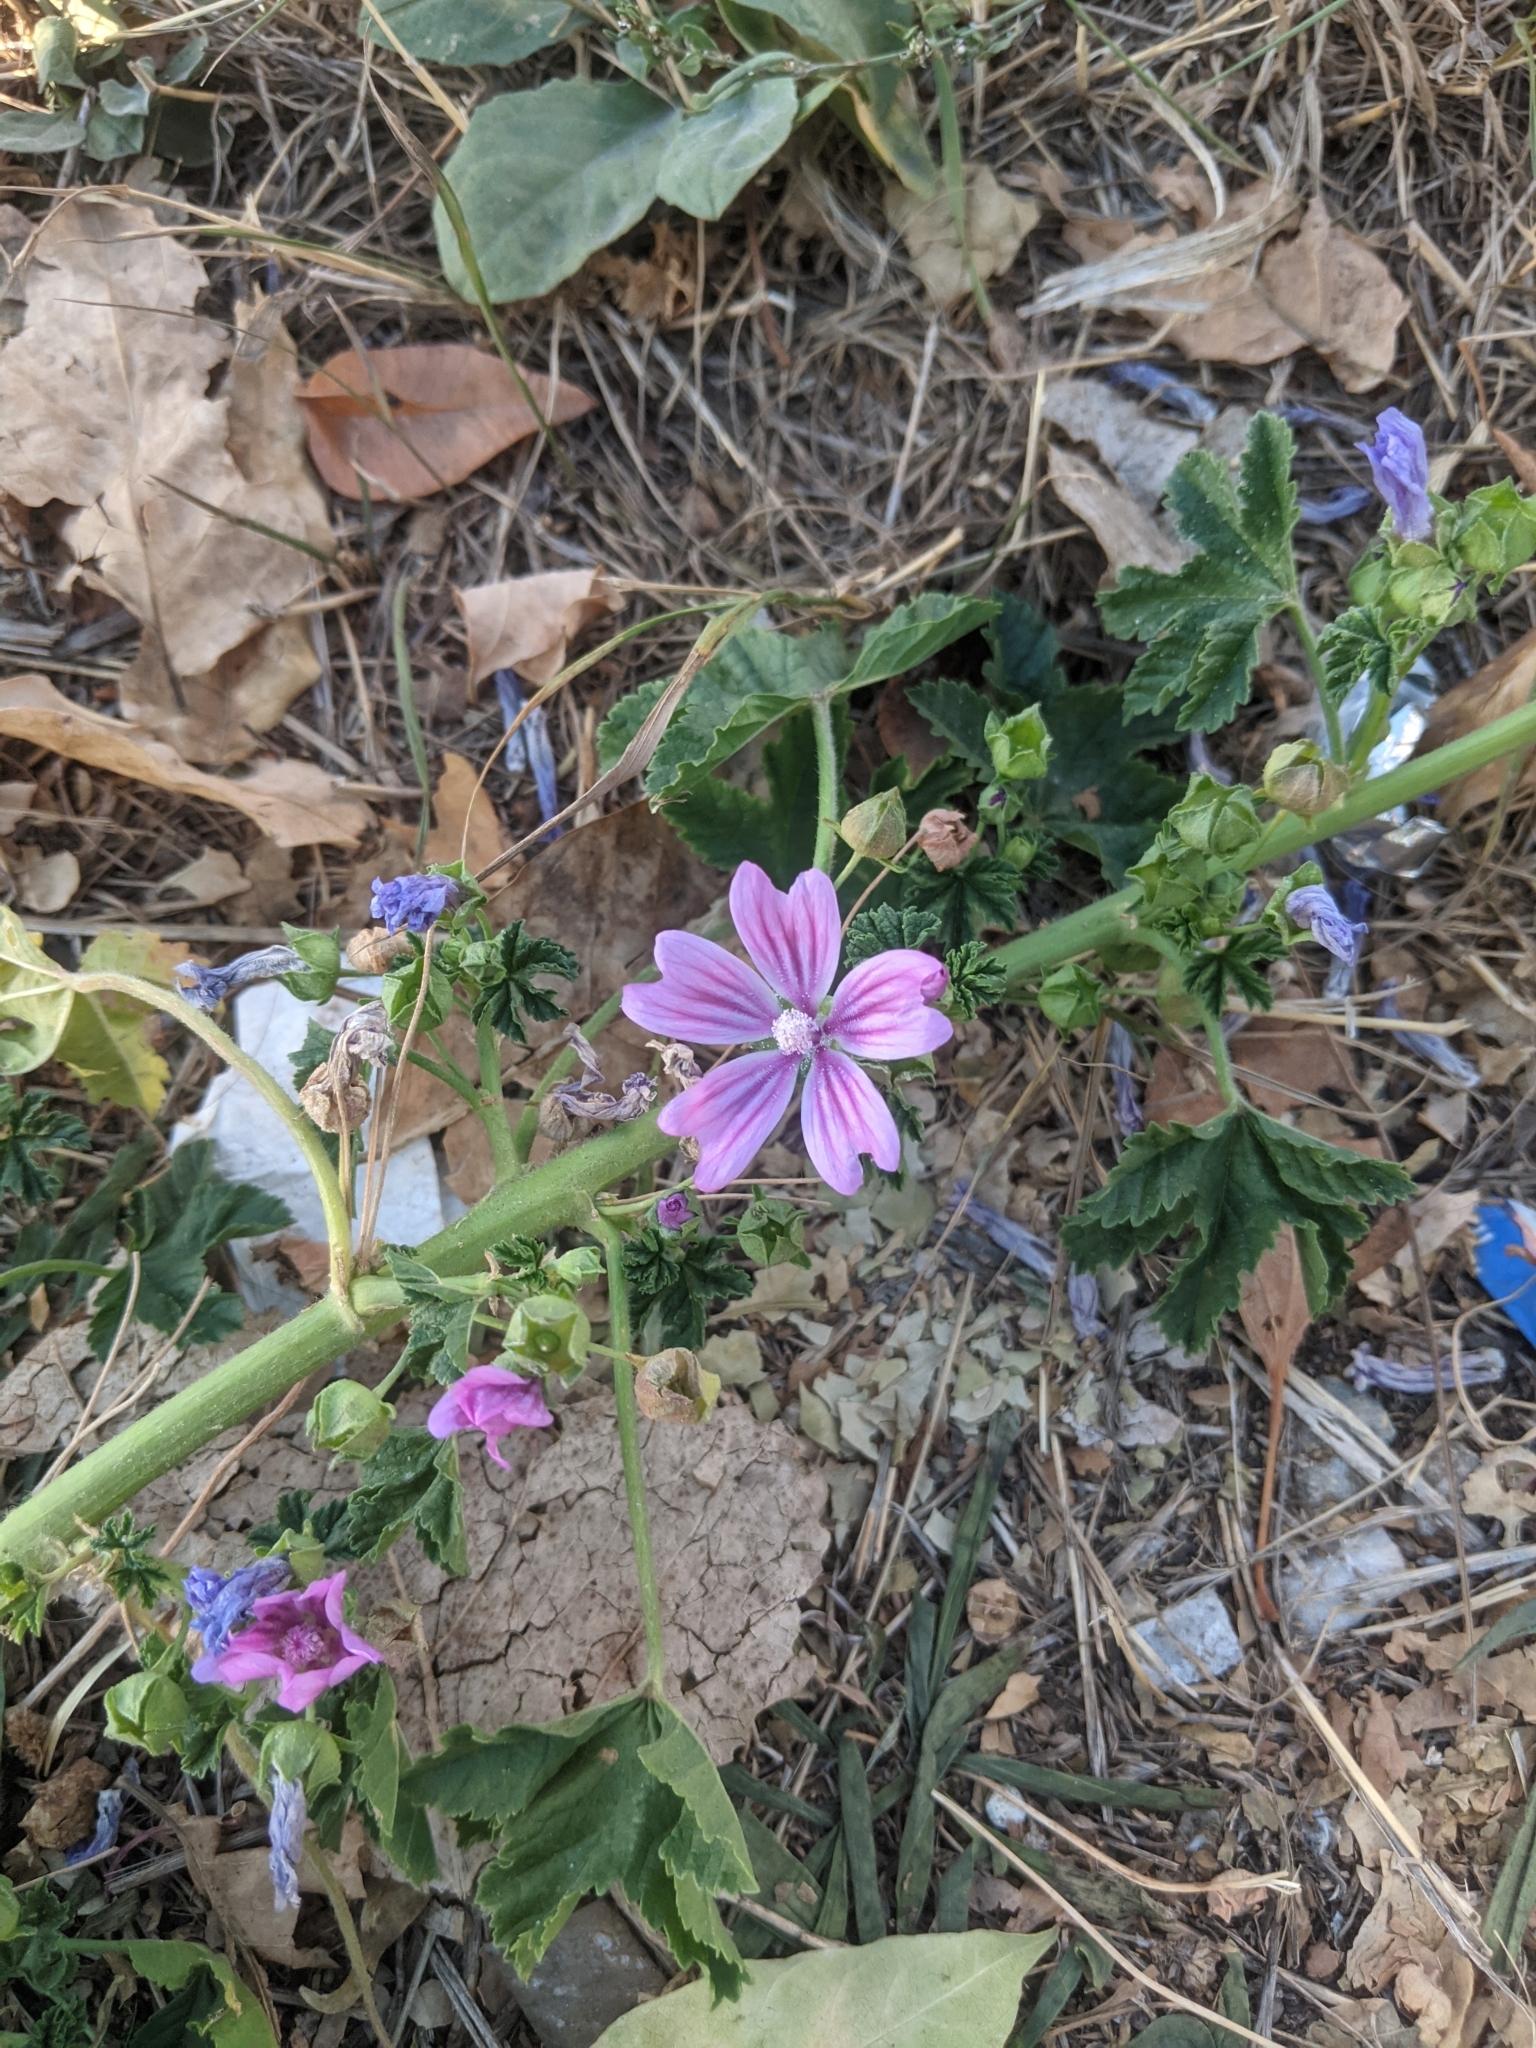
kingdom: Plantae
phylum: Tracheophyta
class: Magnoliopsida
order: Malvales
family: Malvaceae
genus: Malva
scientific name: Malva sylvestris
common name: Common mallow
